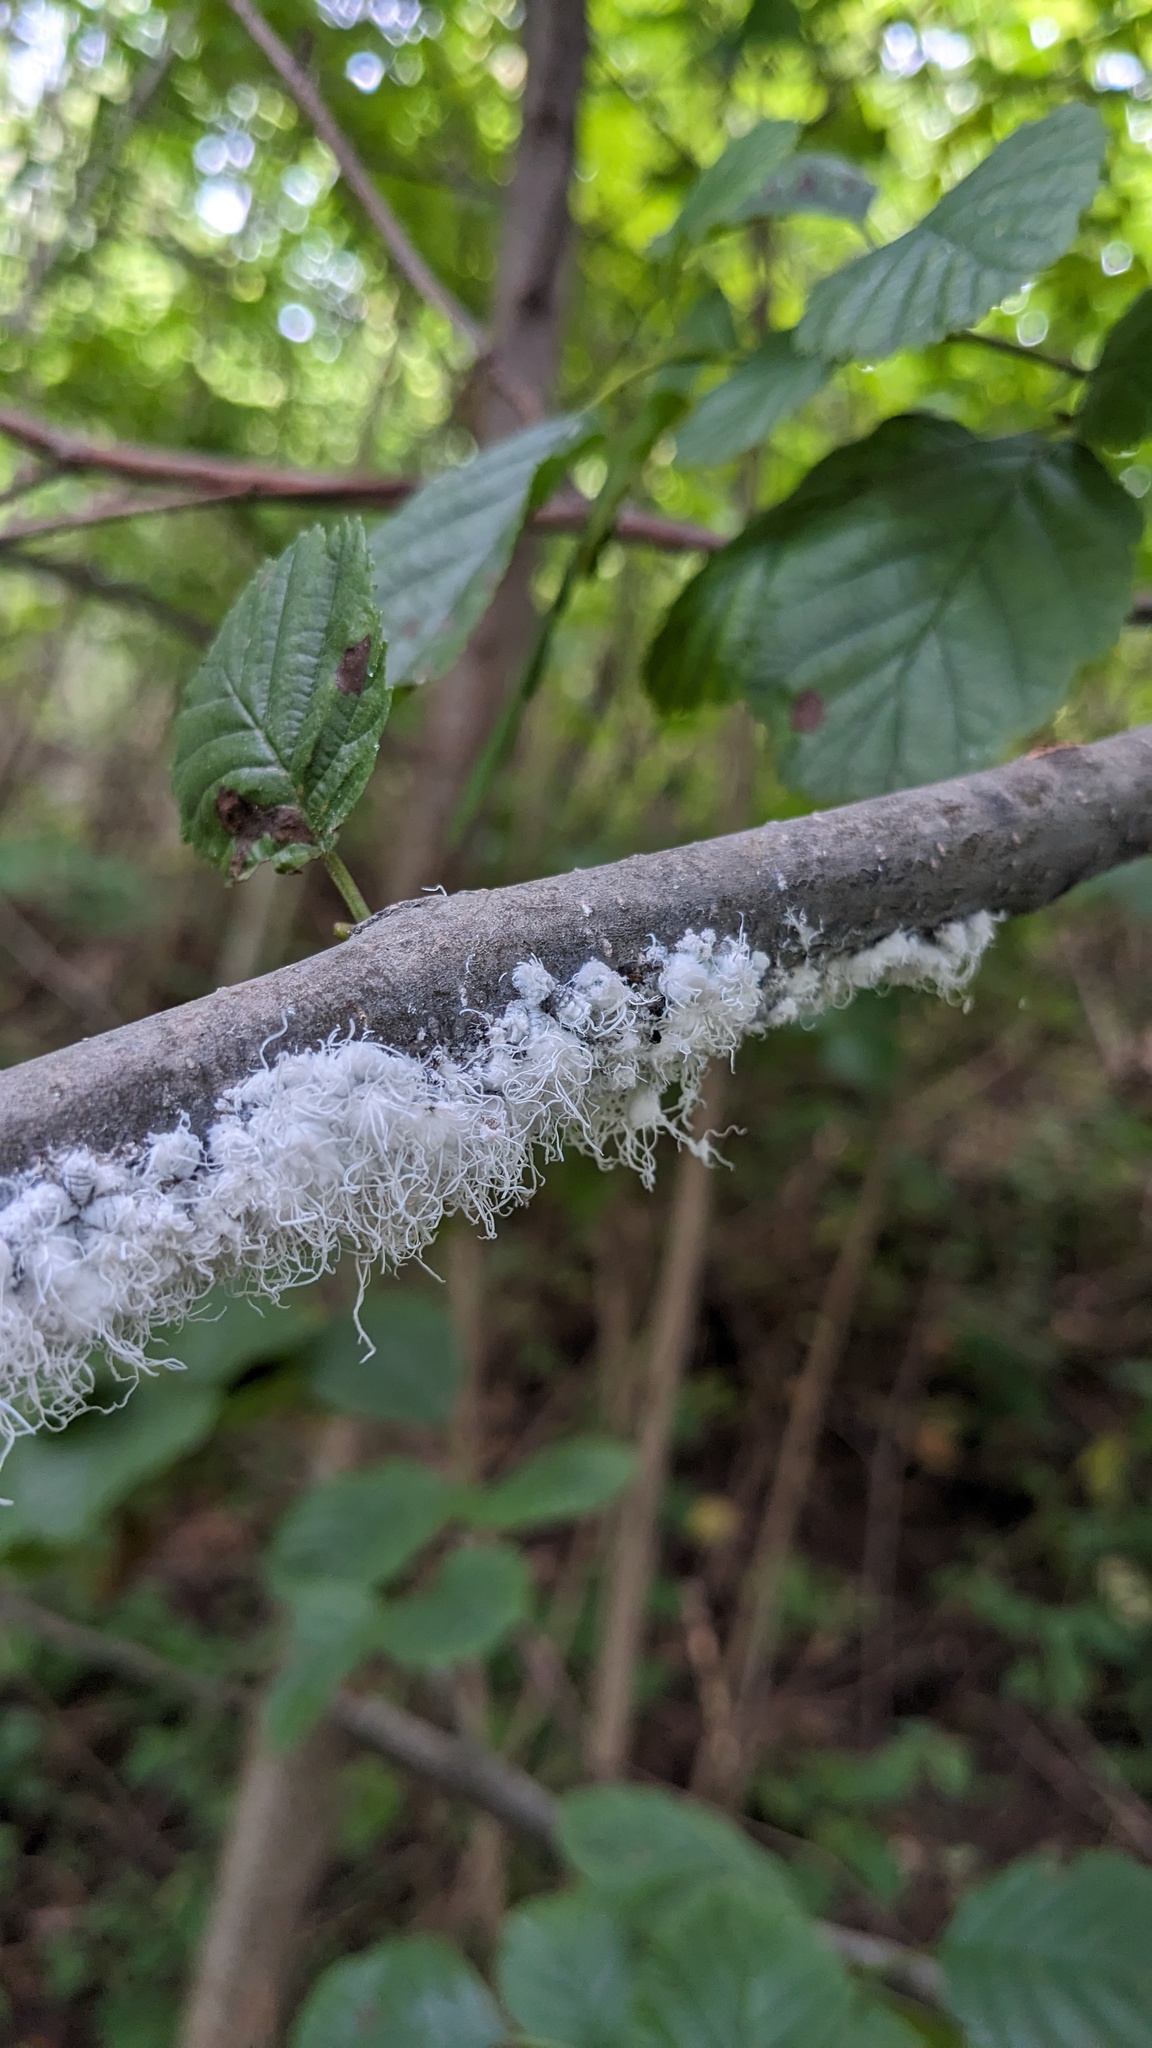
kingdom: Animalia
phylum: Arthropoda
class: Insecta
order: Hemiptera
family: Aphididae
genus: Prociphilus
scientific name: Prociphilus tessellatus
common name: Woolly alder aphid
